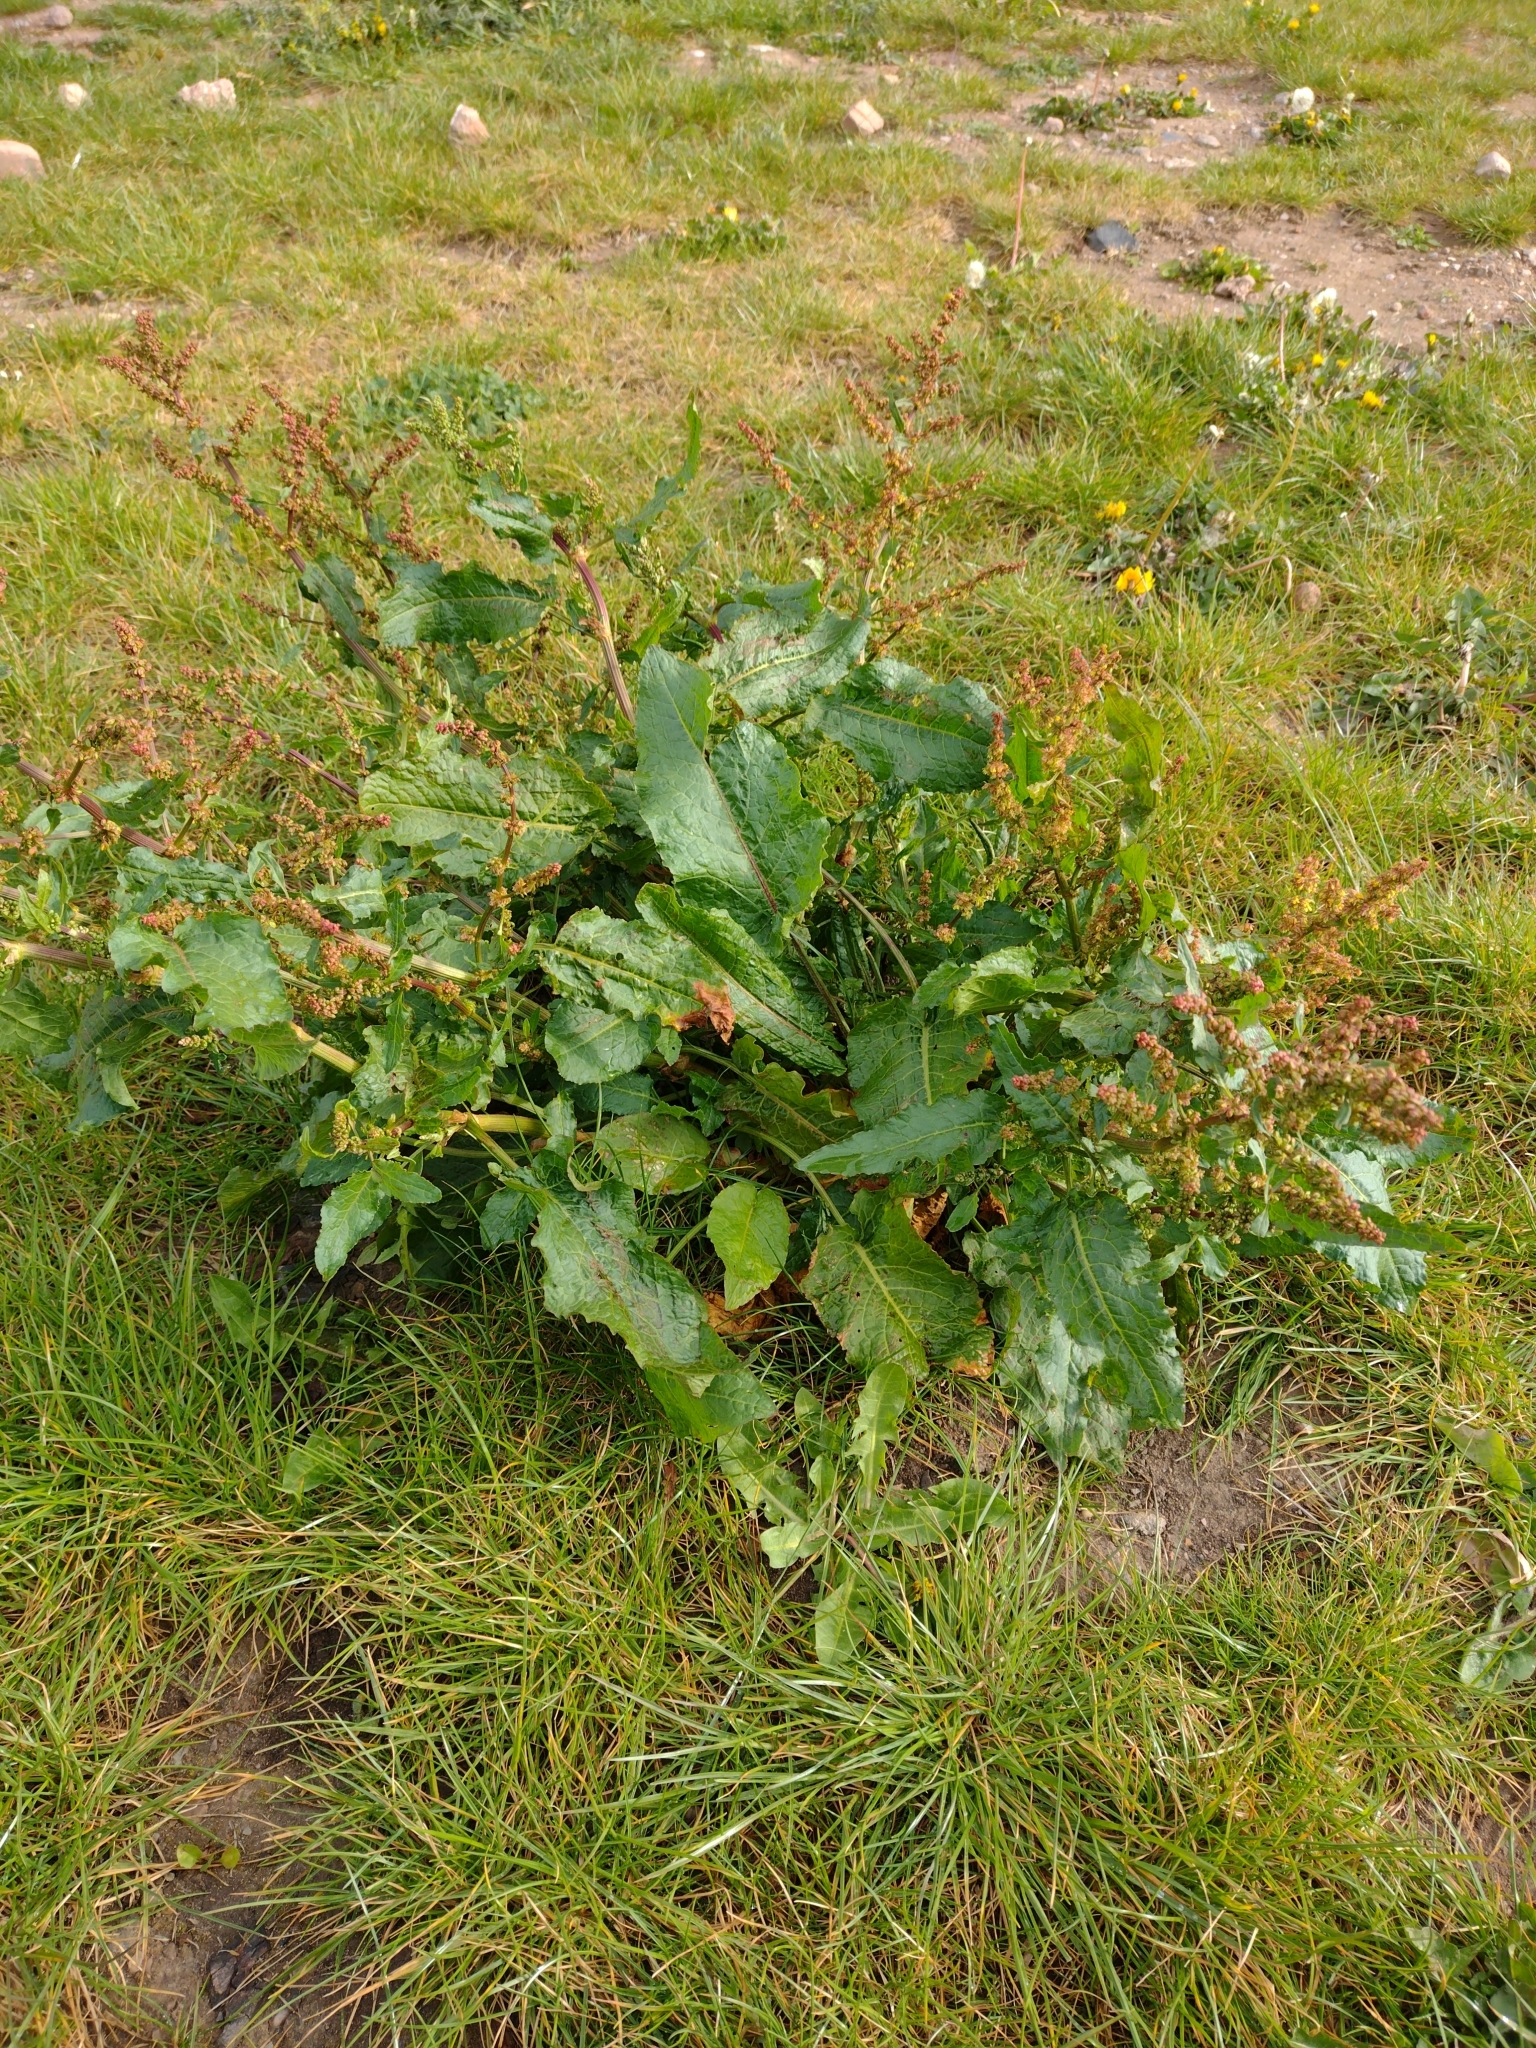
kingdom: Plantae
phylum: Tracheophyta
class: Magnoliopsida
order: Caryophyllales
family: Polygonaceae
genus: Rumex
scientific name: Rumex obtusifolius
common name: Bitter dock
